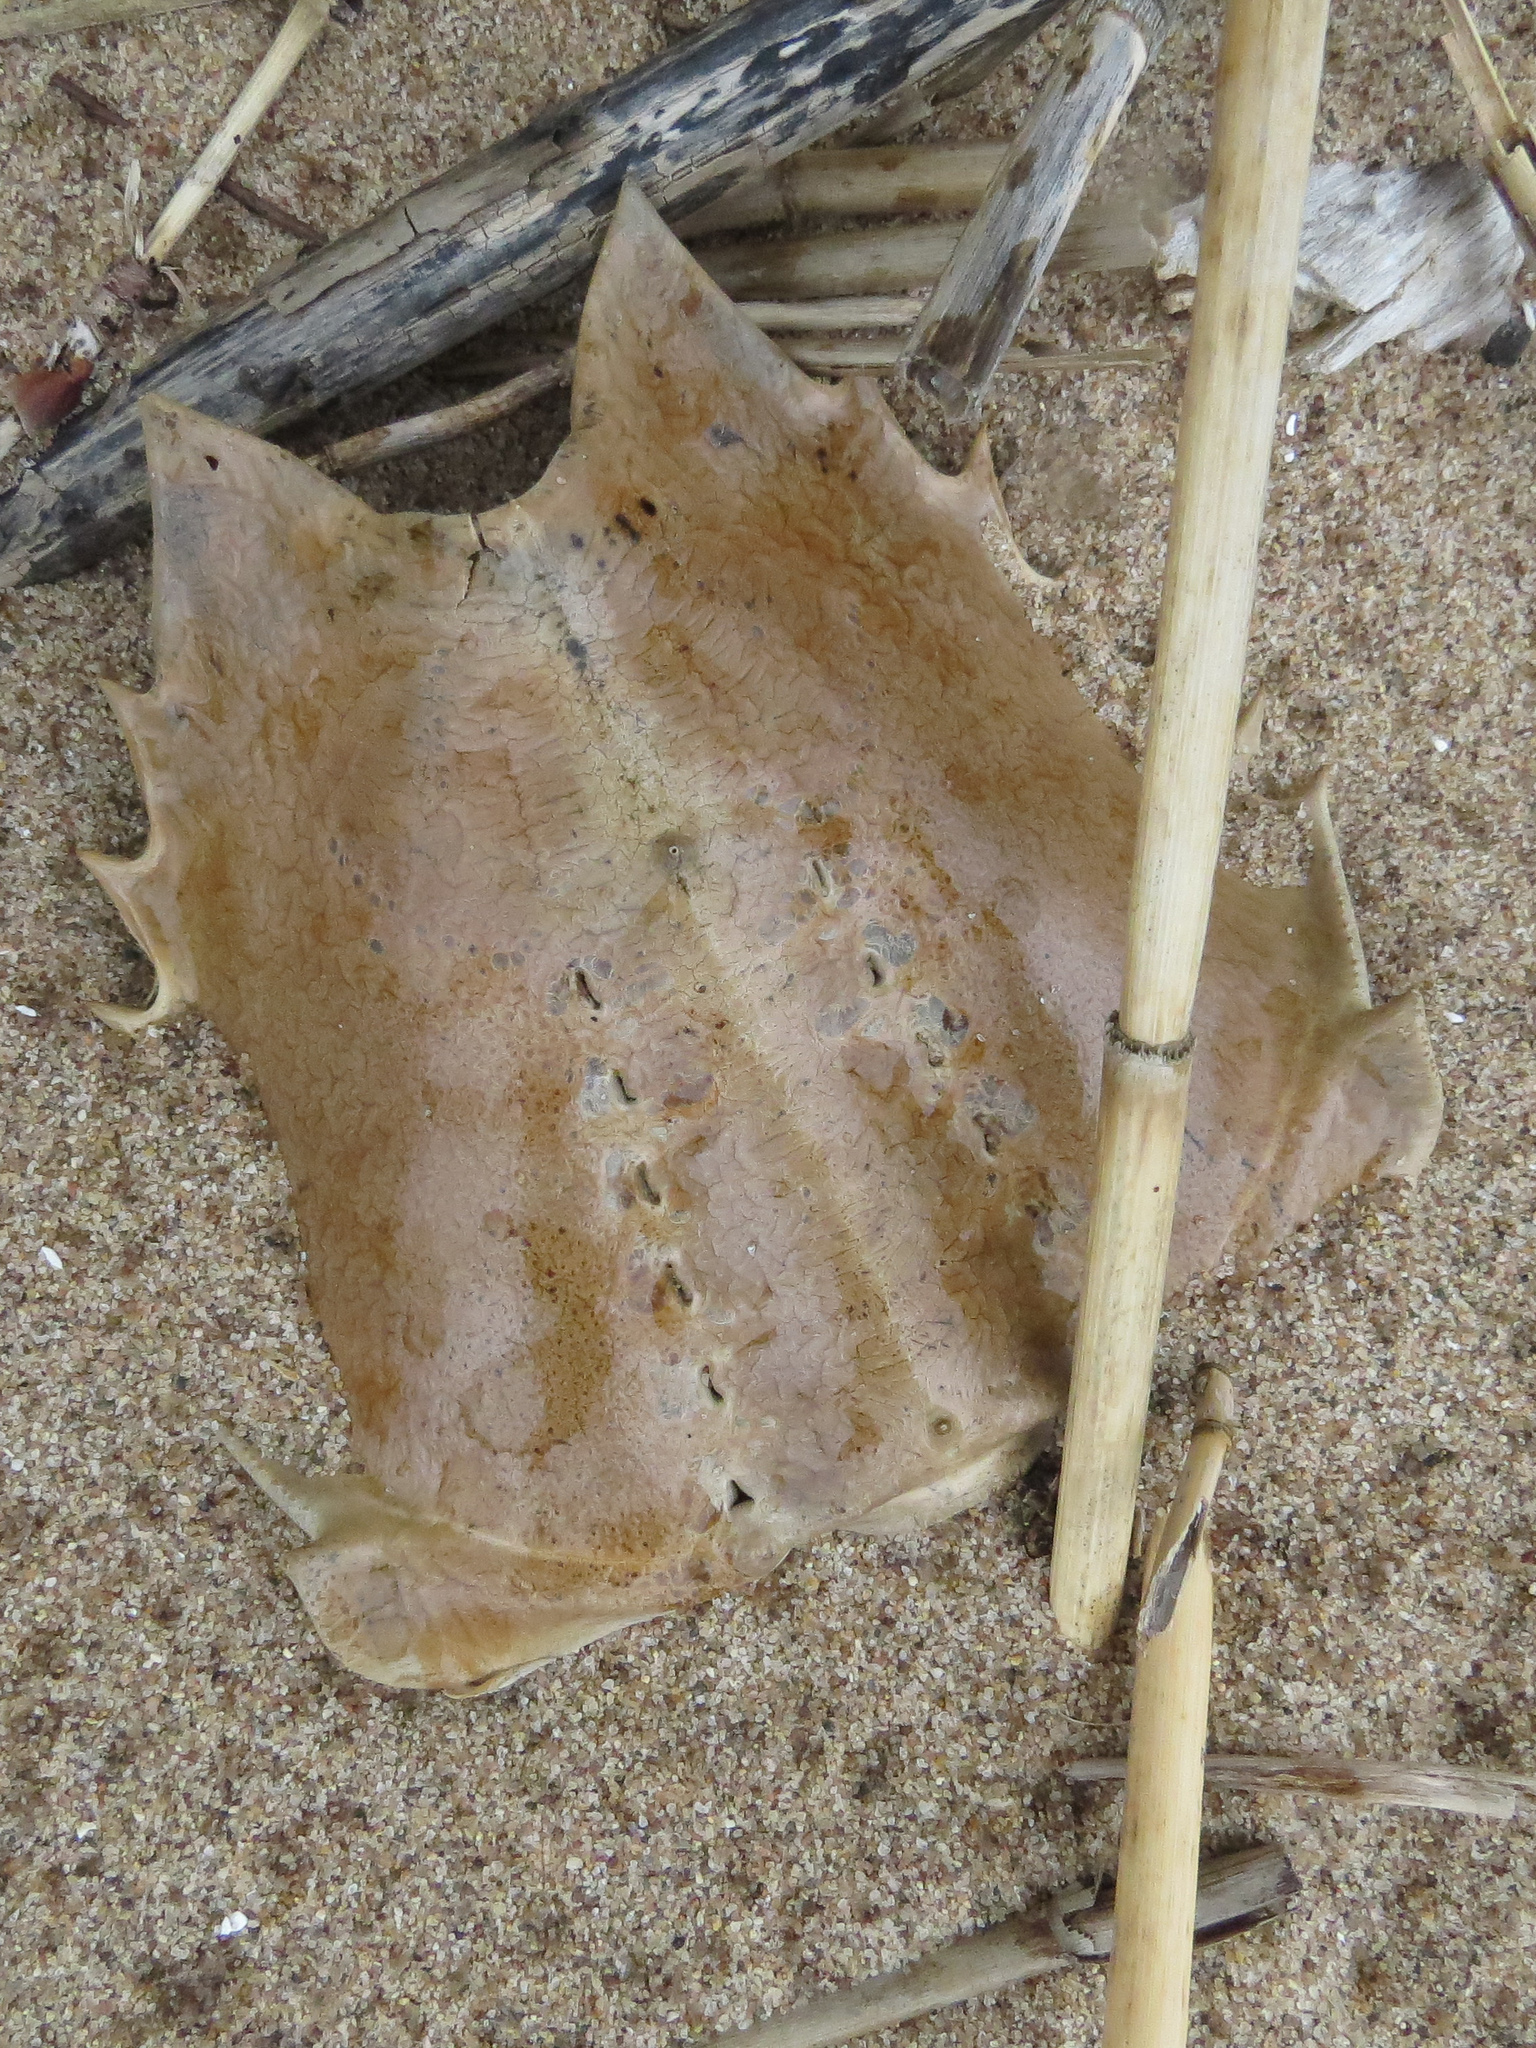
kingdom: Animalia
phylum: Arthropoda
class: Merostomata
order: Xiphosurida
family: Limulidae
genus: Limulus
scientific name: Limulus polyphemus
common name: Horseshoe crab
